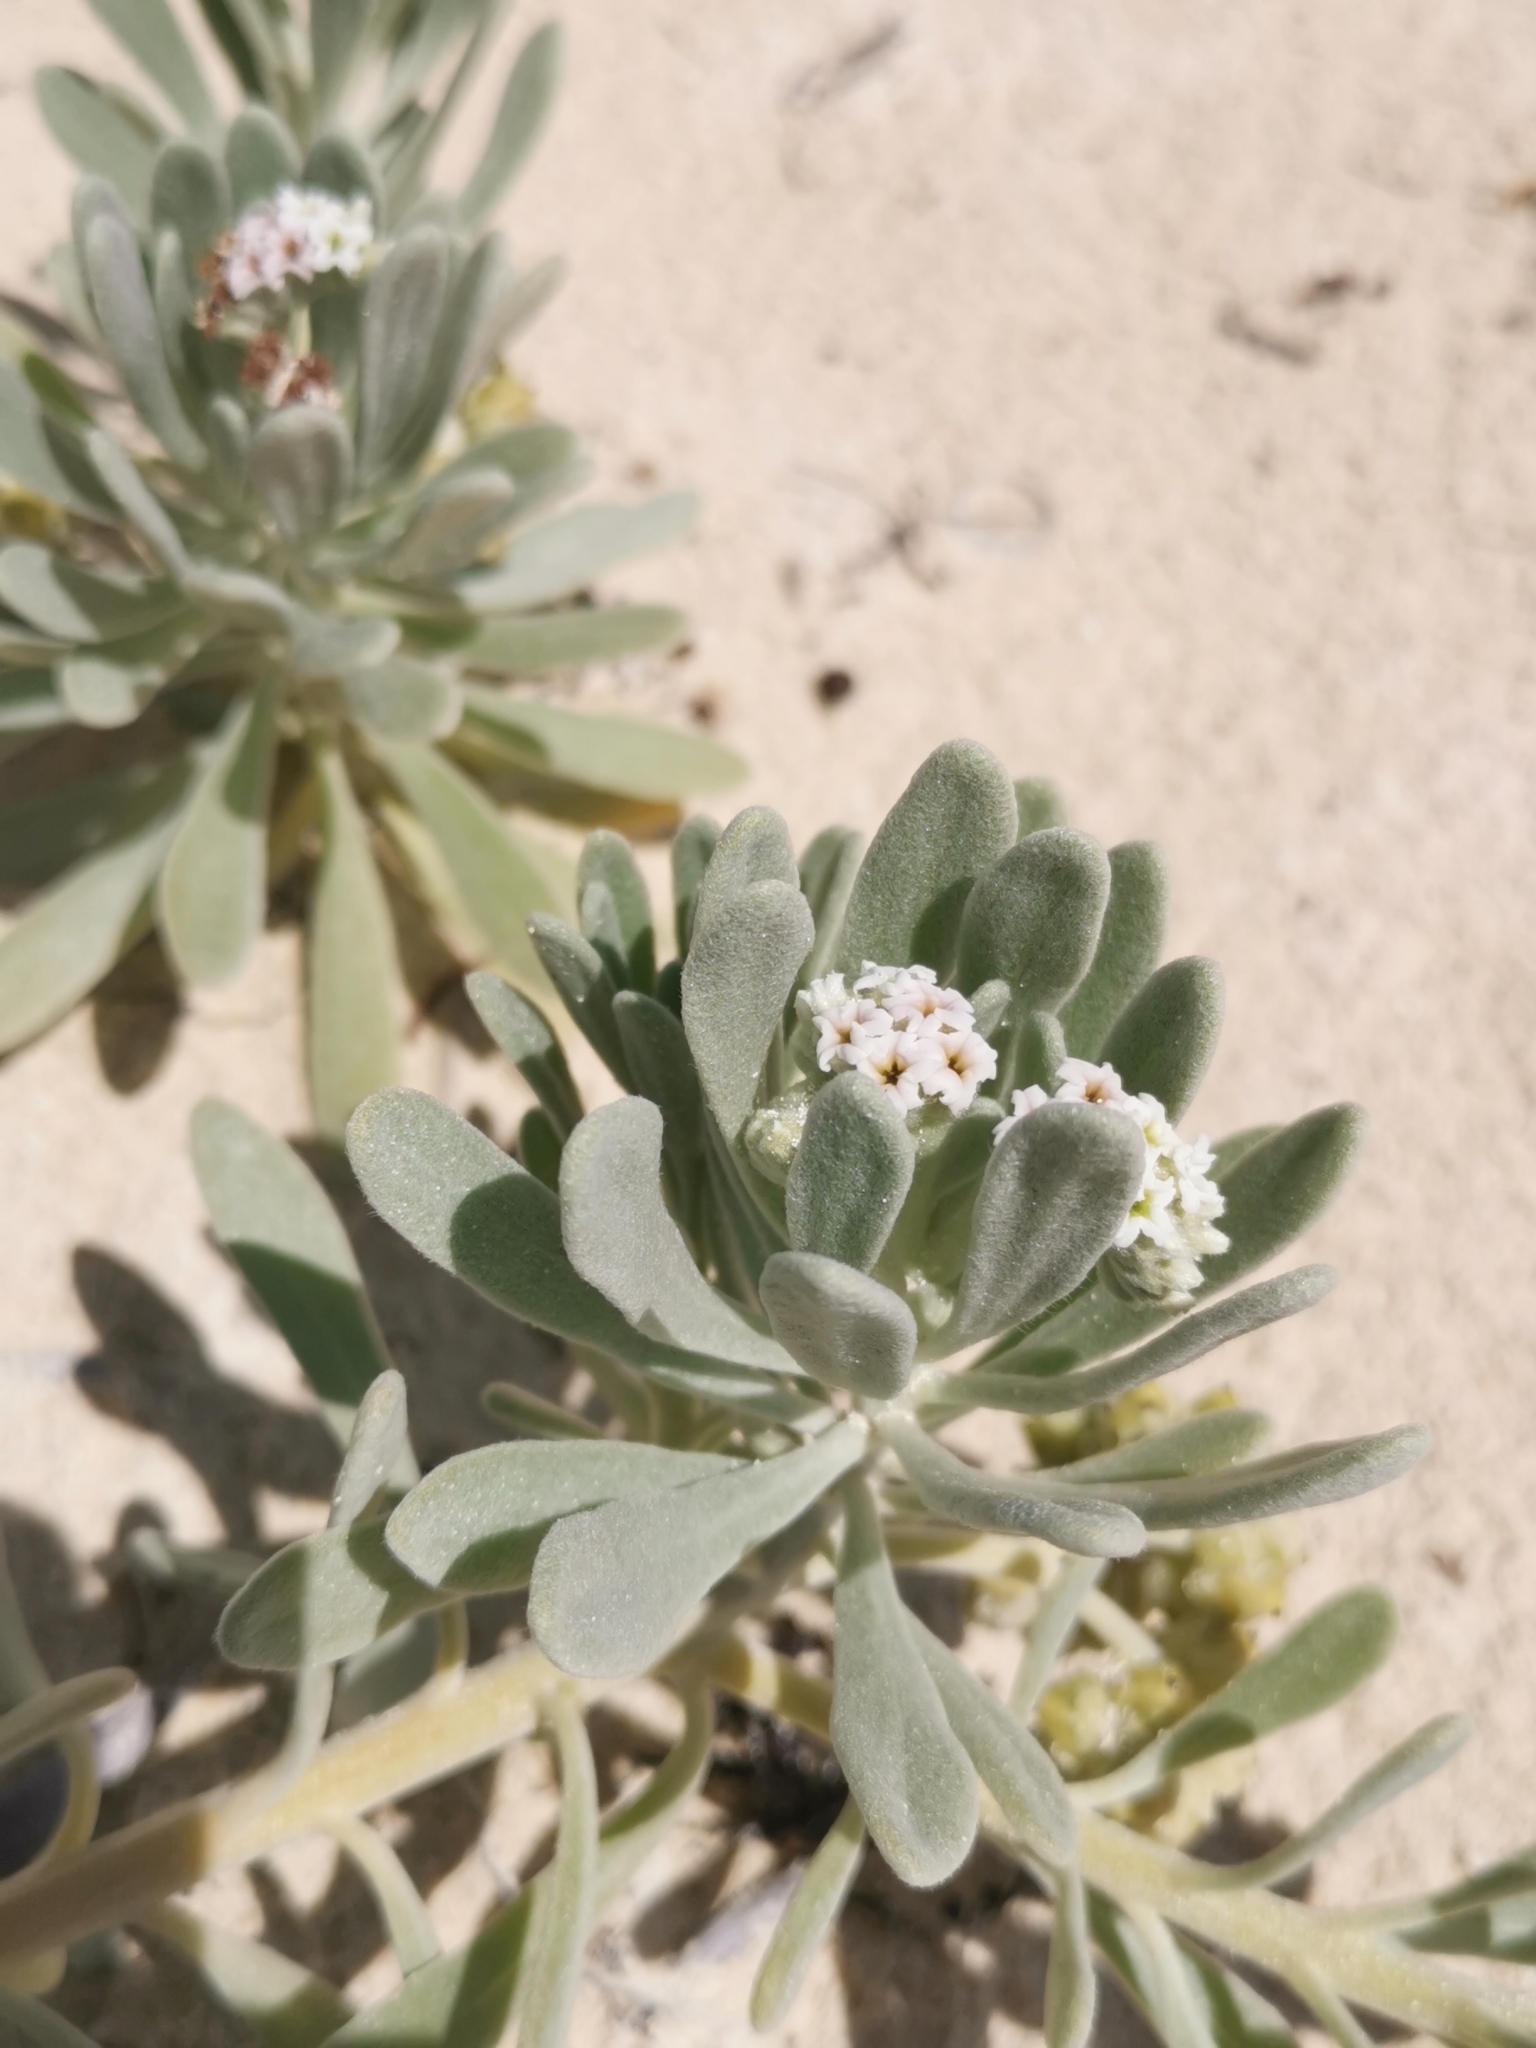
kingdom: Plantae
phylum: Tracheophyta
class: Magnoliopsida
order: Boraginales
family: Heliotropiaceae
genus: Tournefortia
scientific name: Tournefortia gnaphalodes
